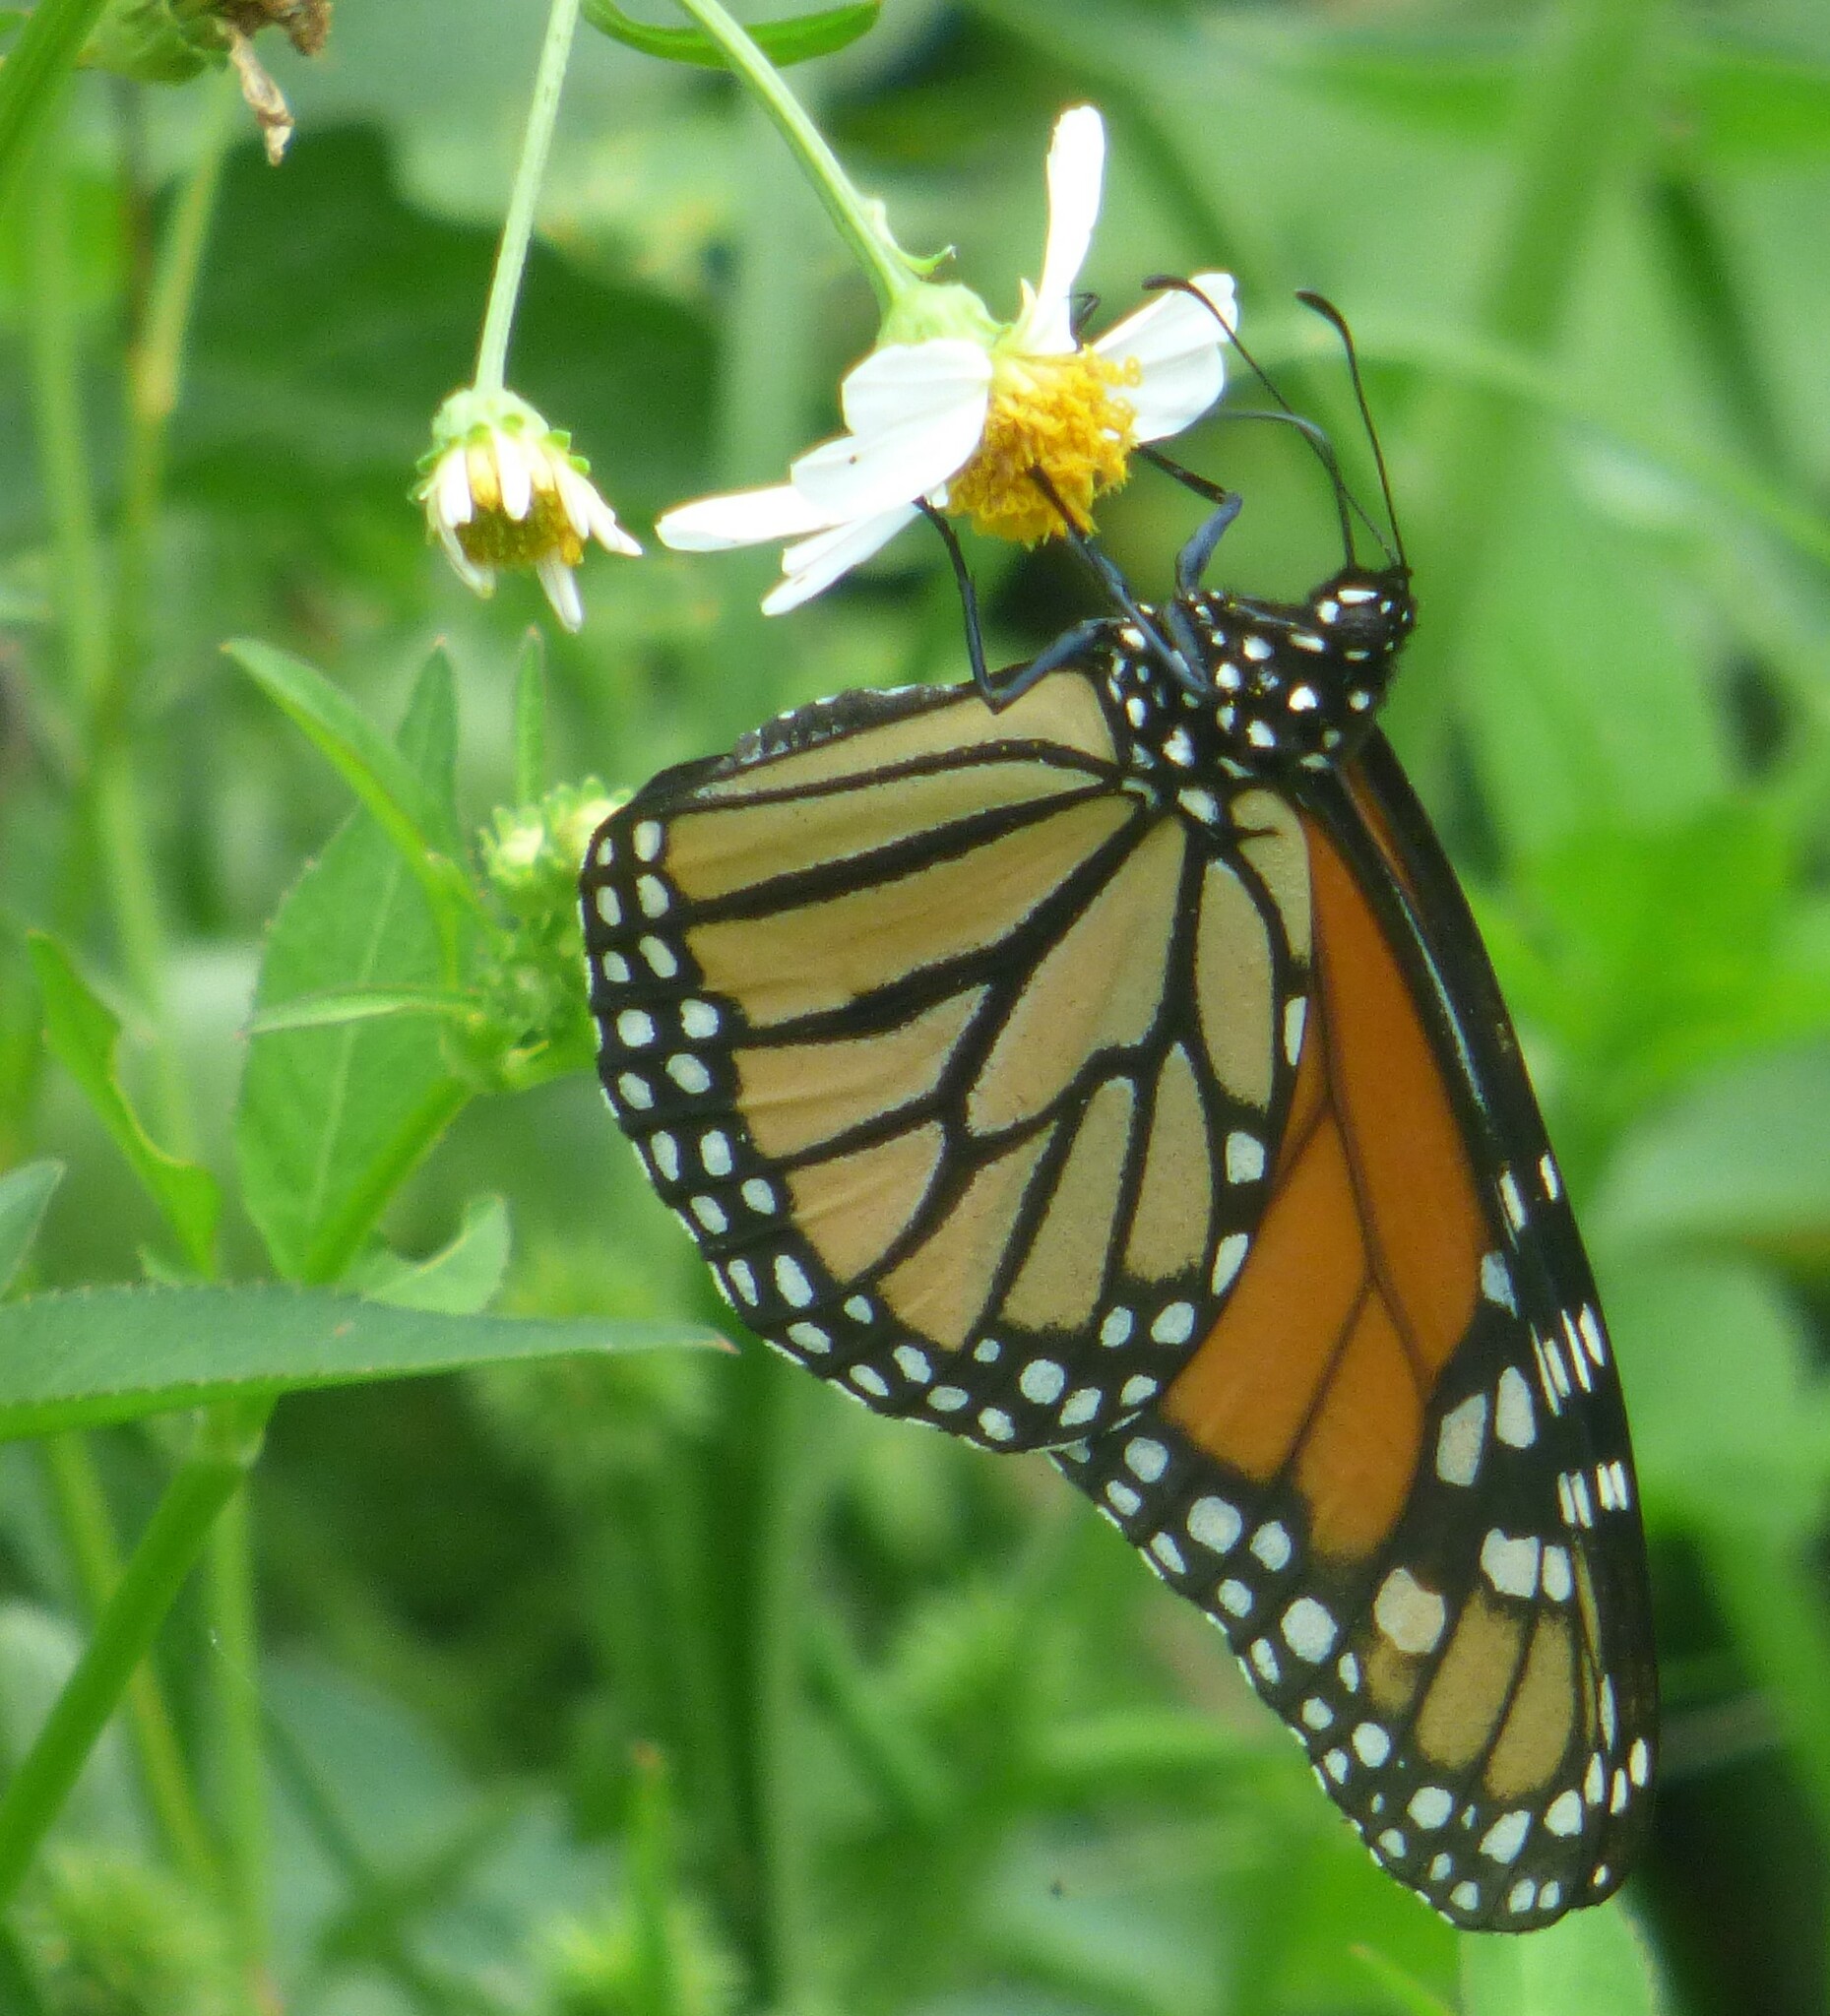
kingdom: Animalia
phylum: Arthropoda
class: Insecta
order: Lepidoptera
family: Nymphalidae
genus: Danaus
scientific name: Danaus plexippus
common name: Monarch
